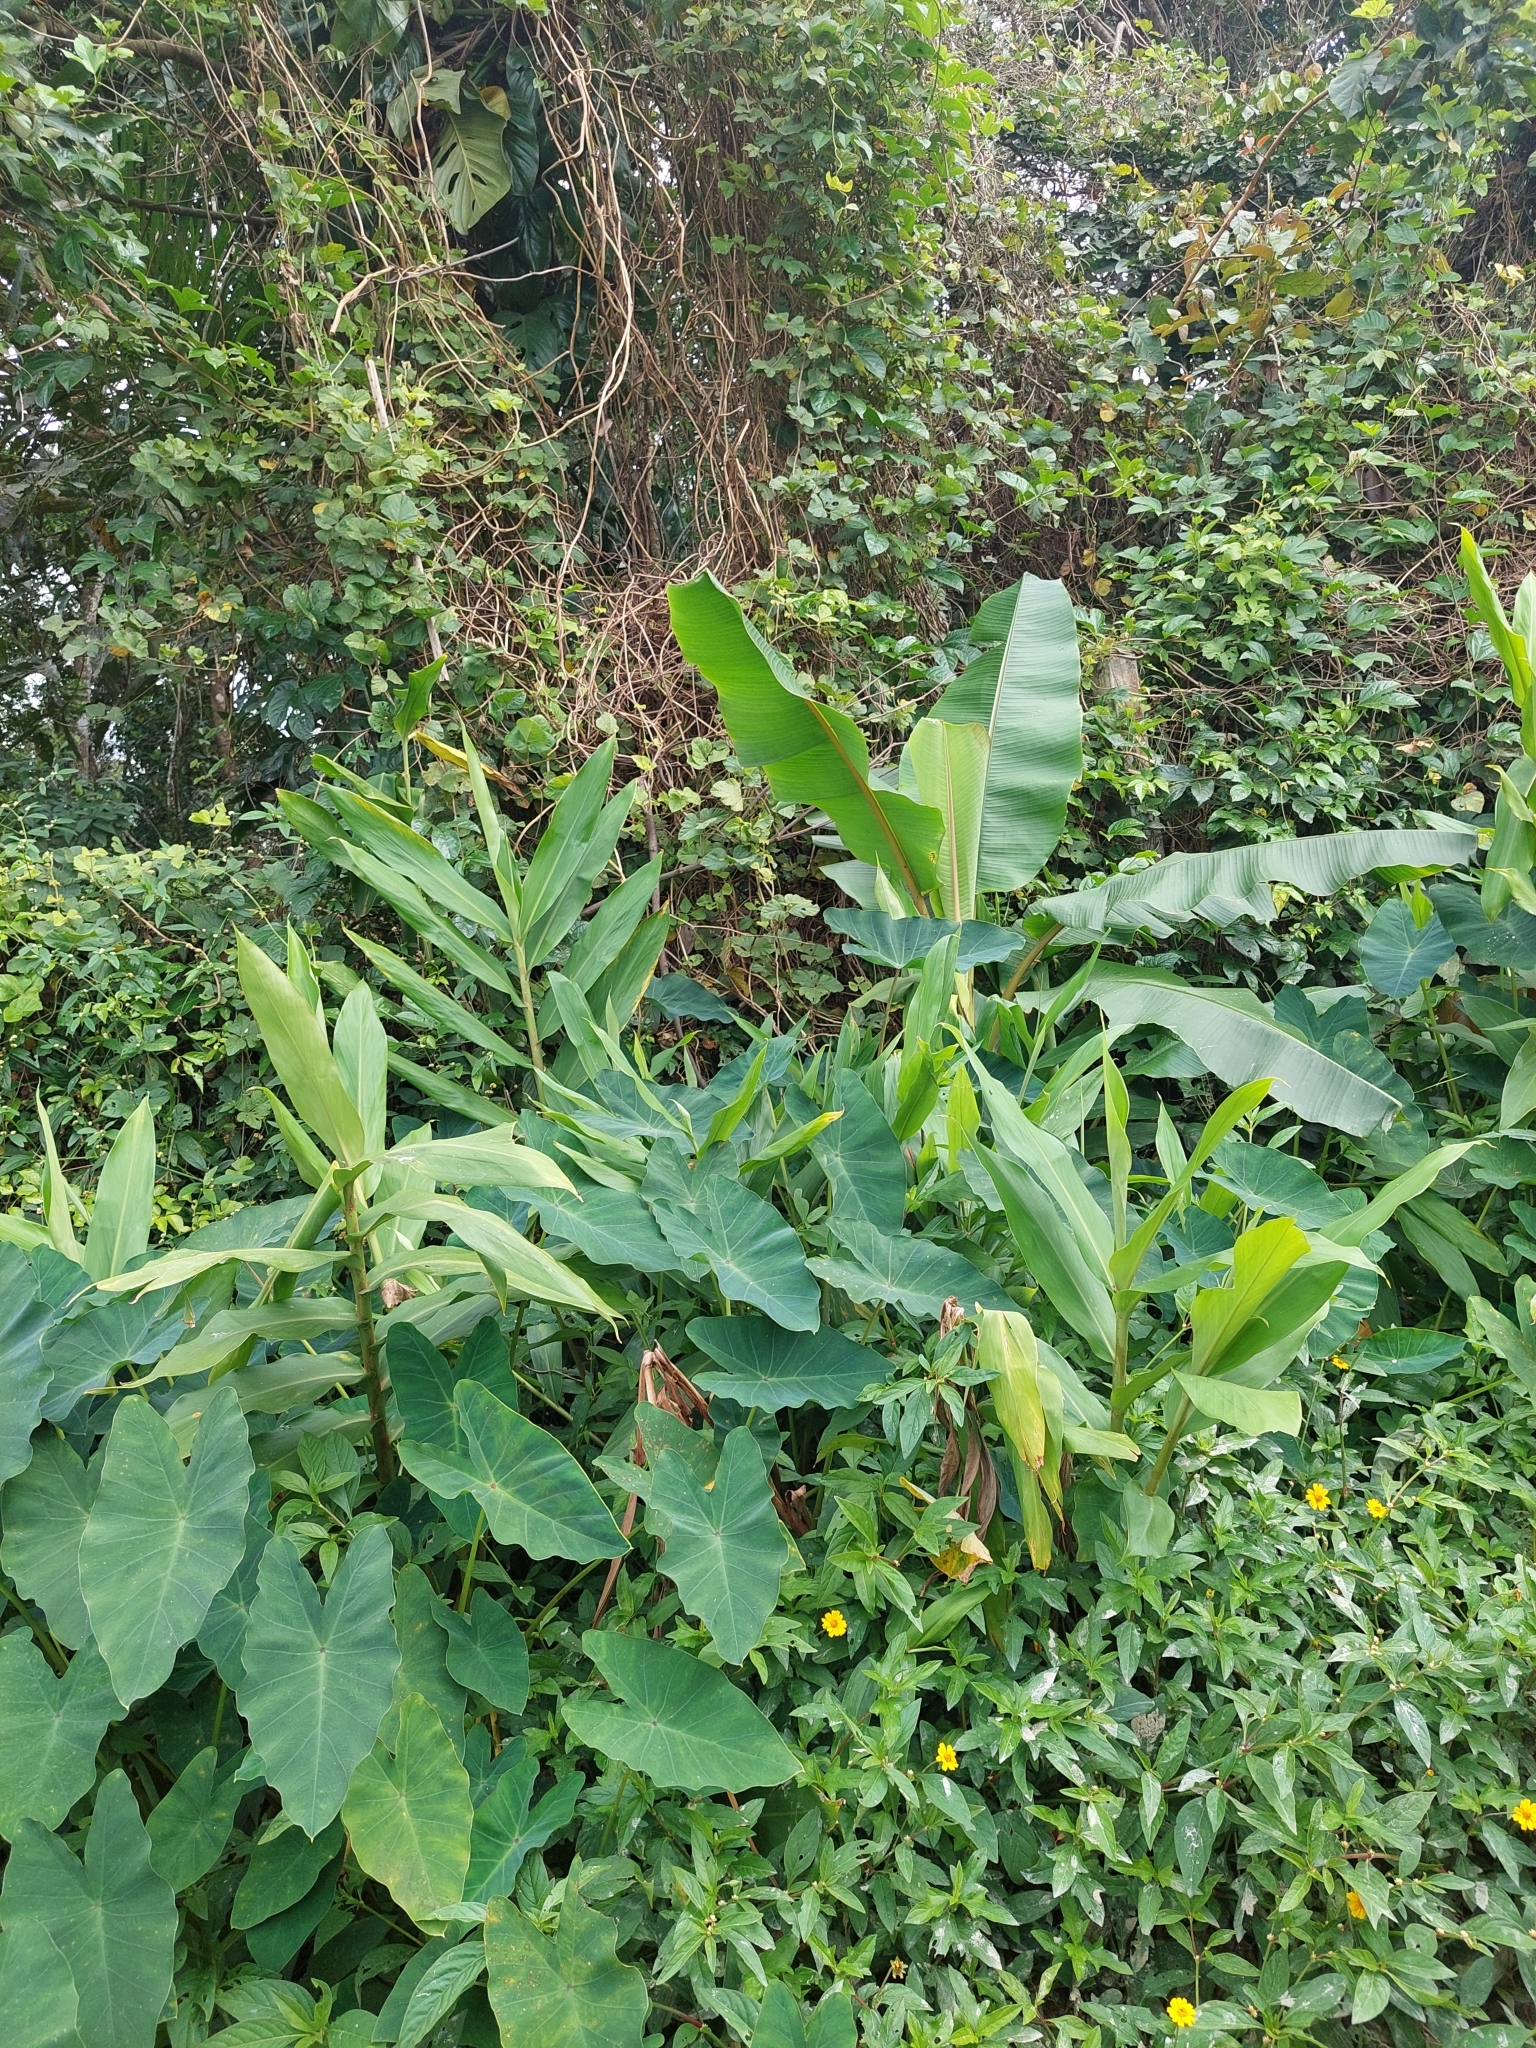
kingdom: Plantae
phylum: Tracheophyta
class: Liliopsida
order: Zingiberales
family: Zingiberaceae
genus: Hedychium
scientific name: Hedychium coronarium
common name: White garland-lily
